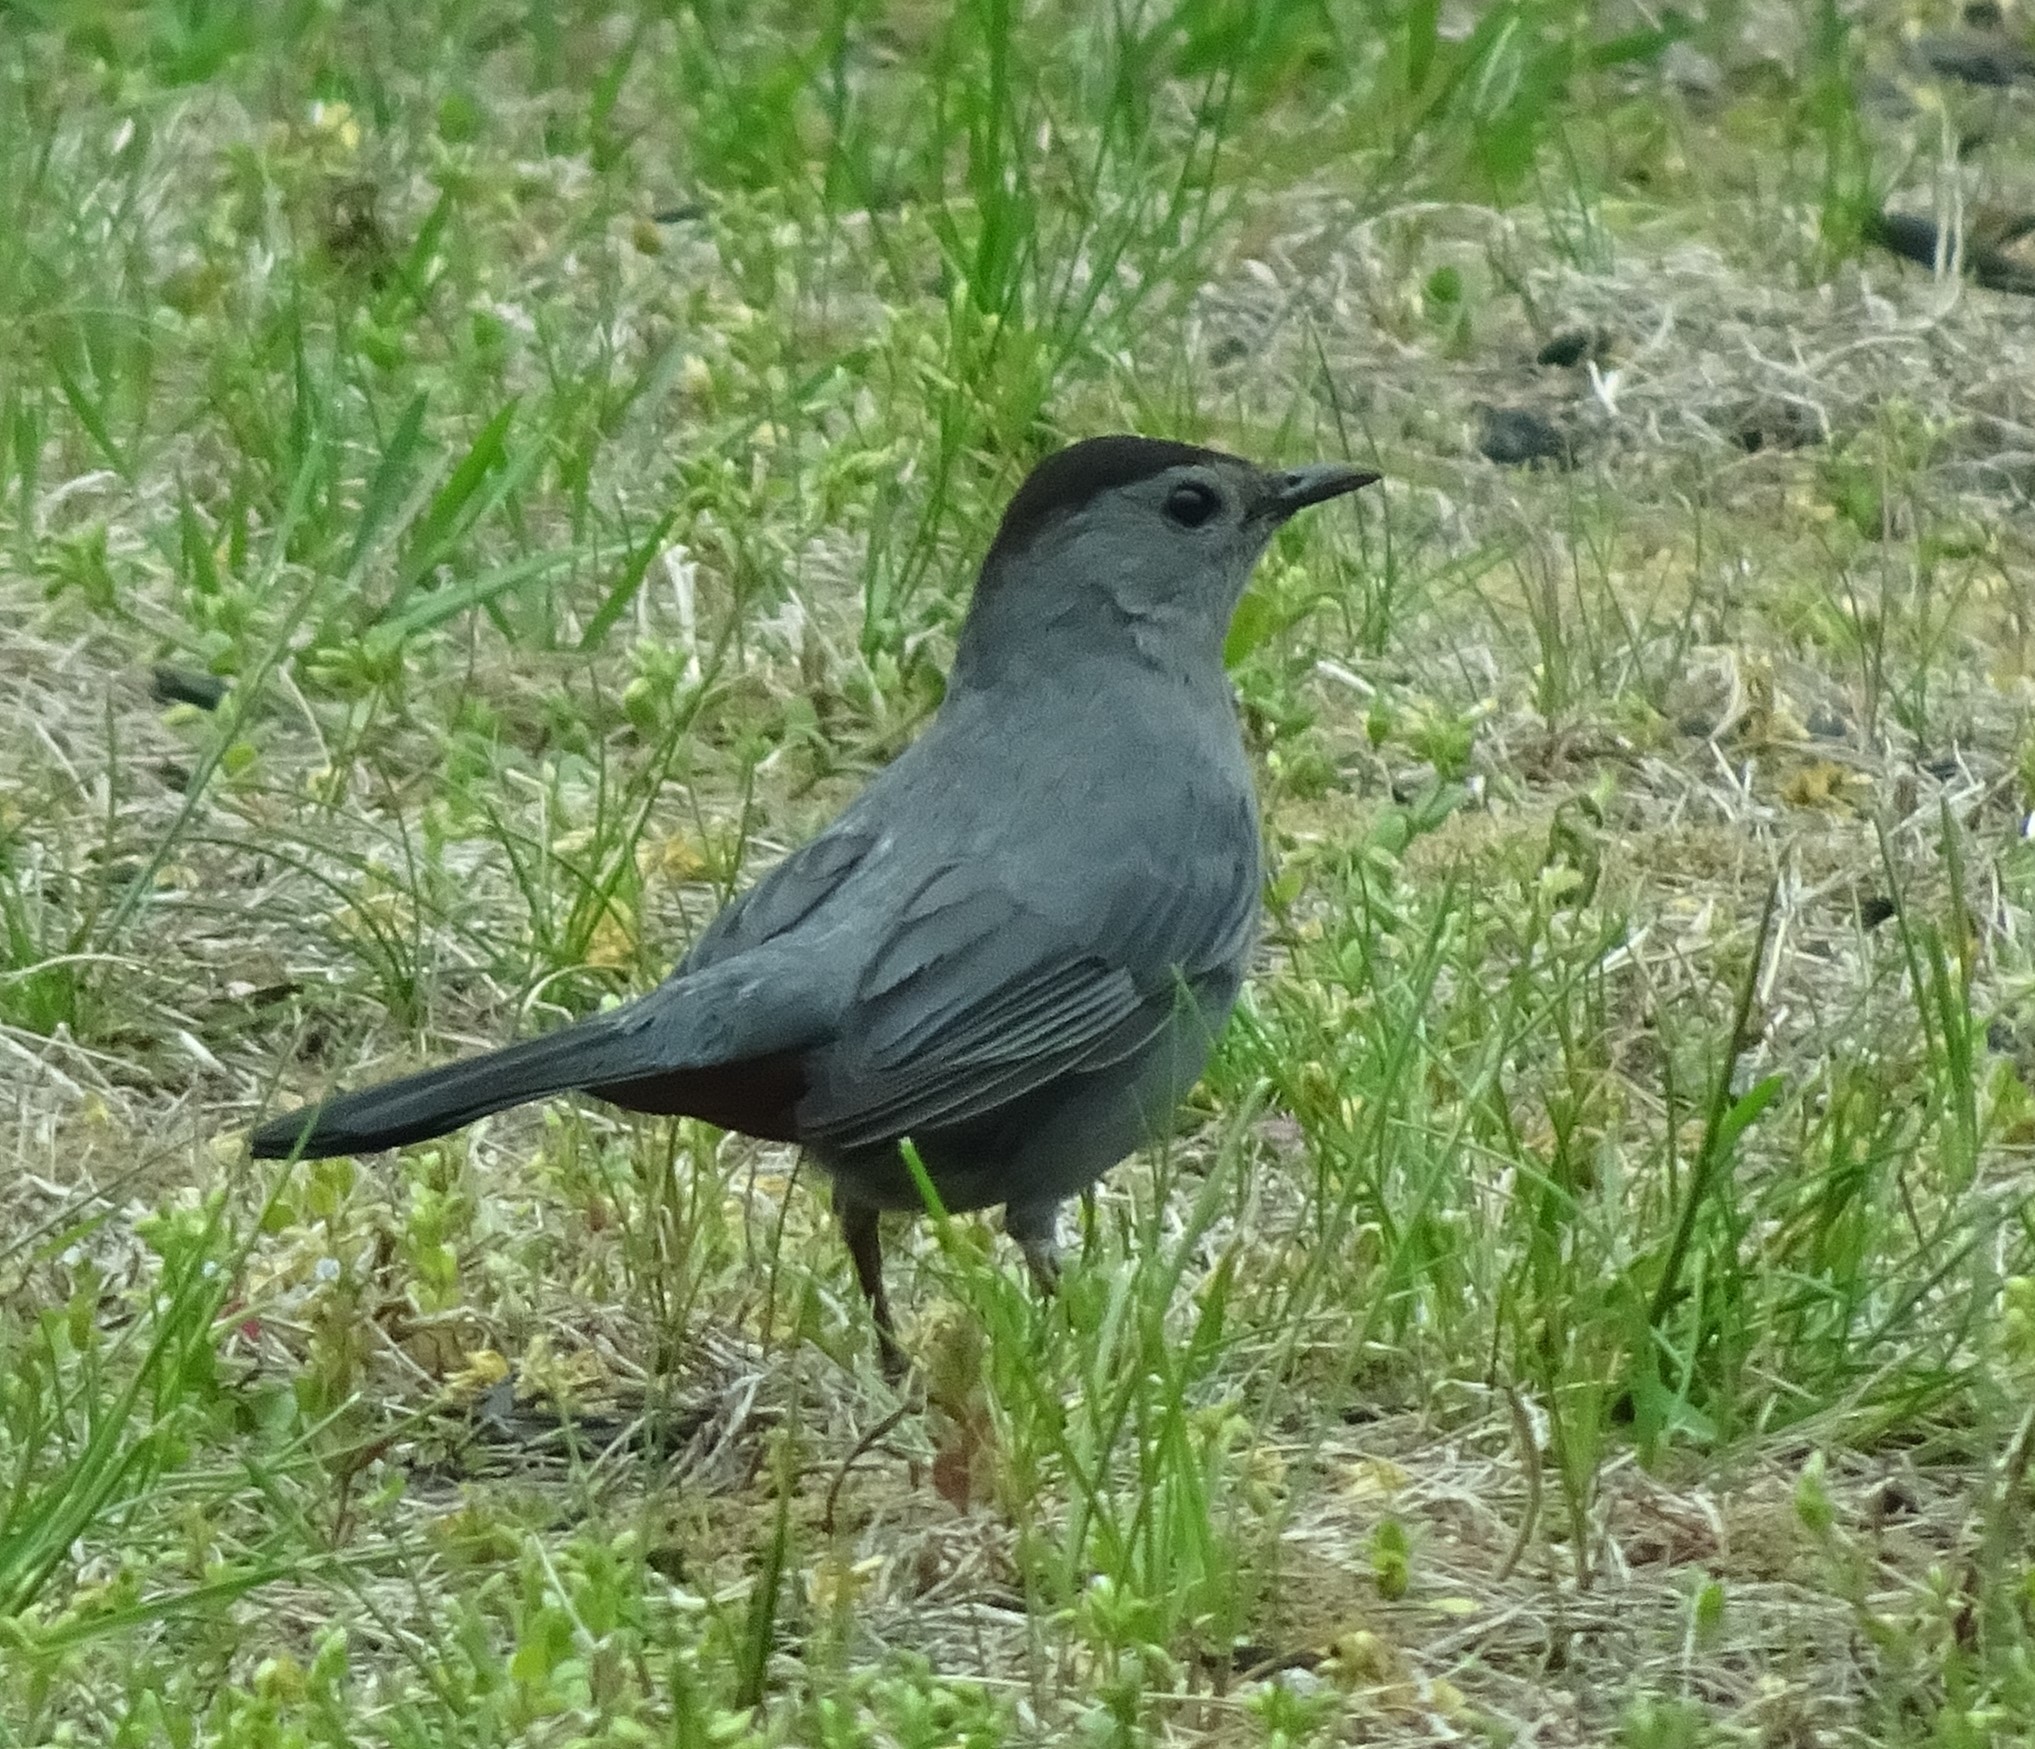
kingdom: Animalia
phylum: Chordata
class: Aves
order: Passeriformes
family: Mimidae
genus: Dumetella
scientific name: Dumetella carolinensis
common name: Gray catbird
